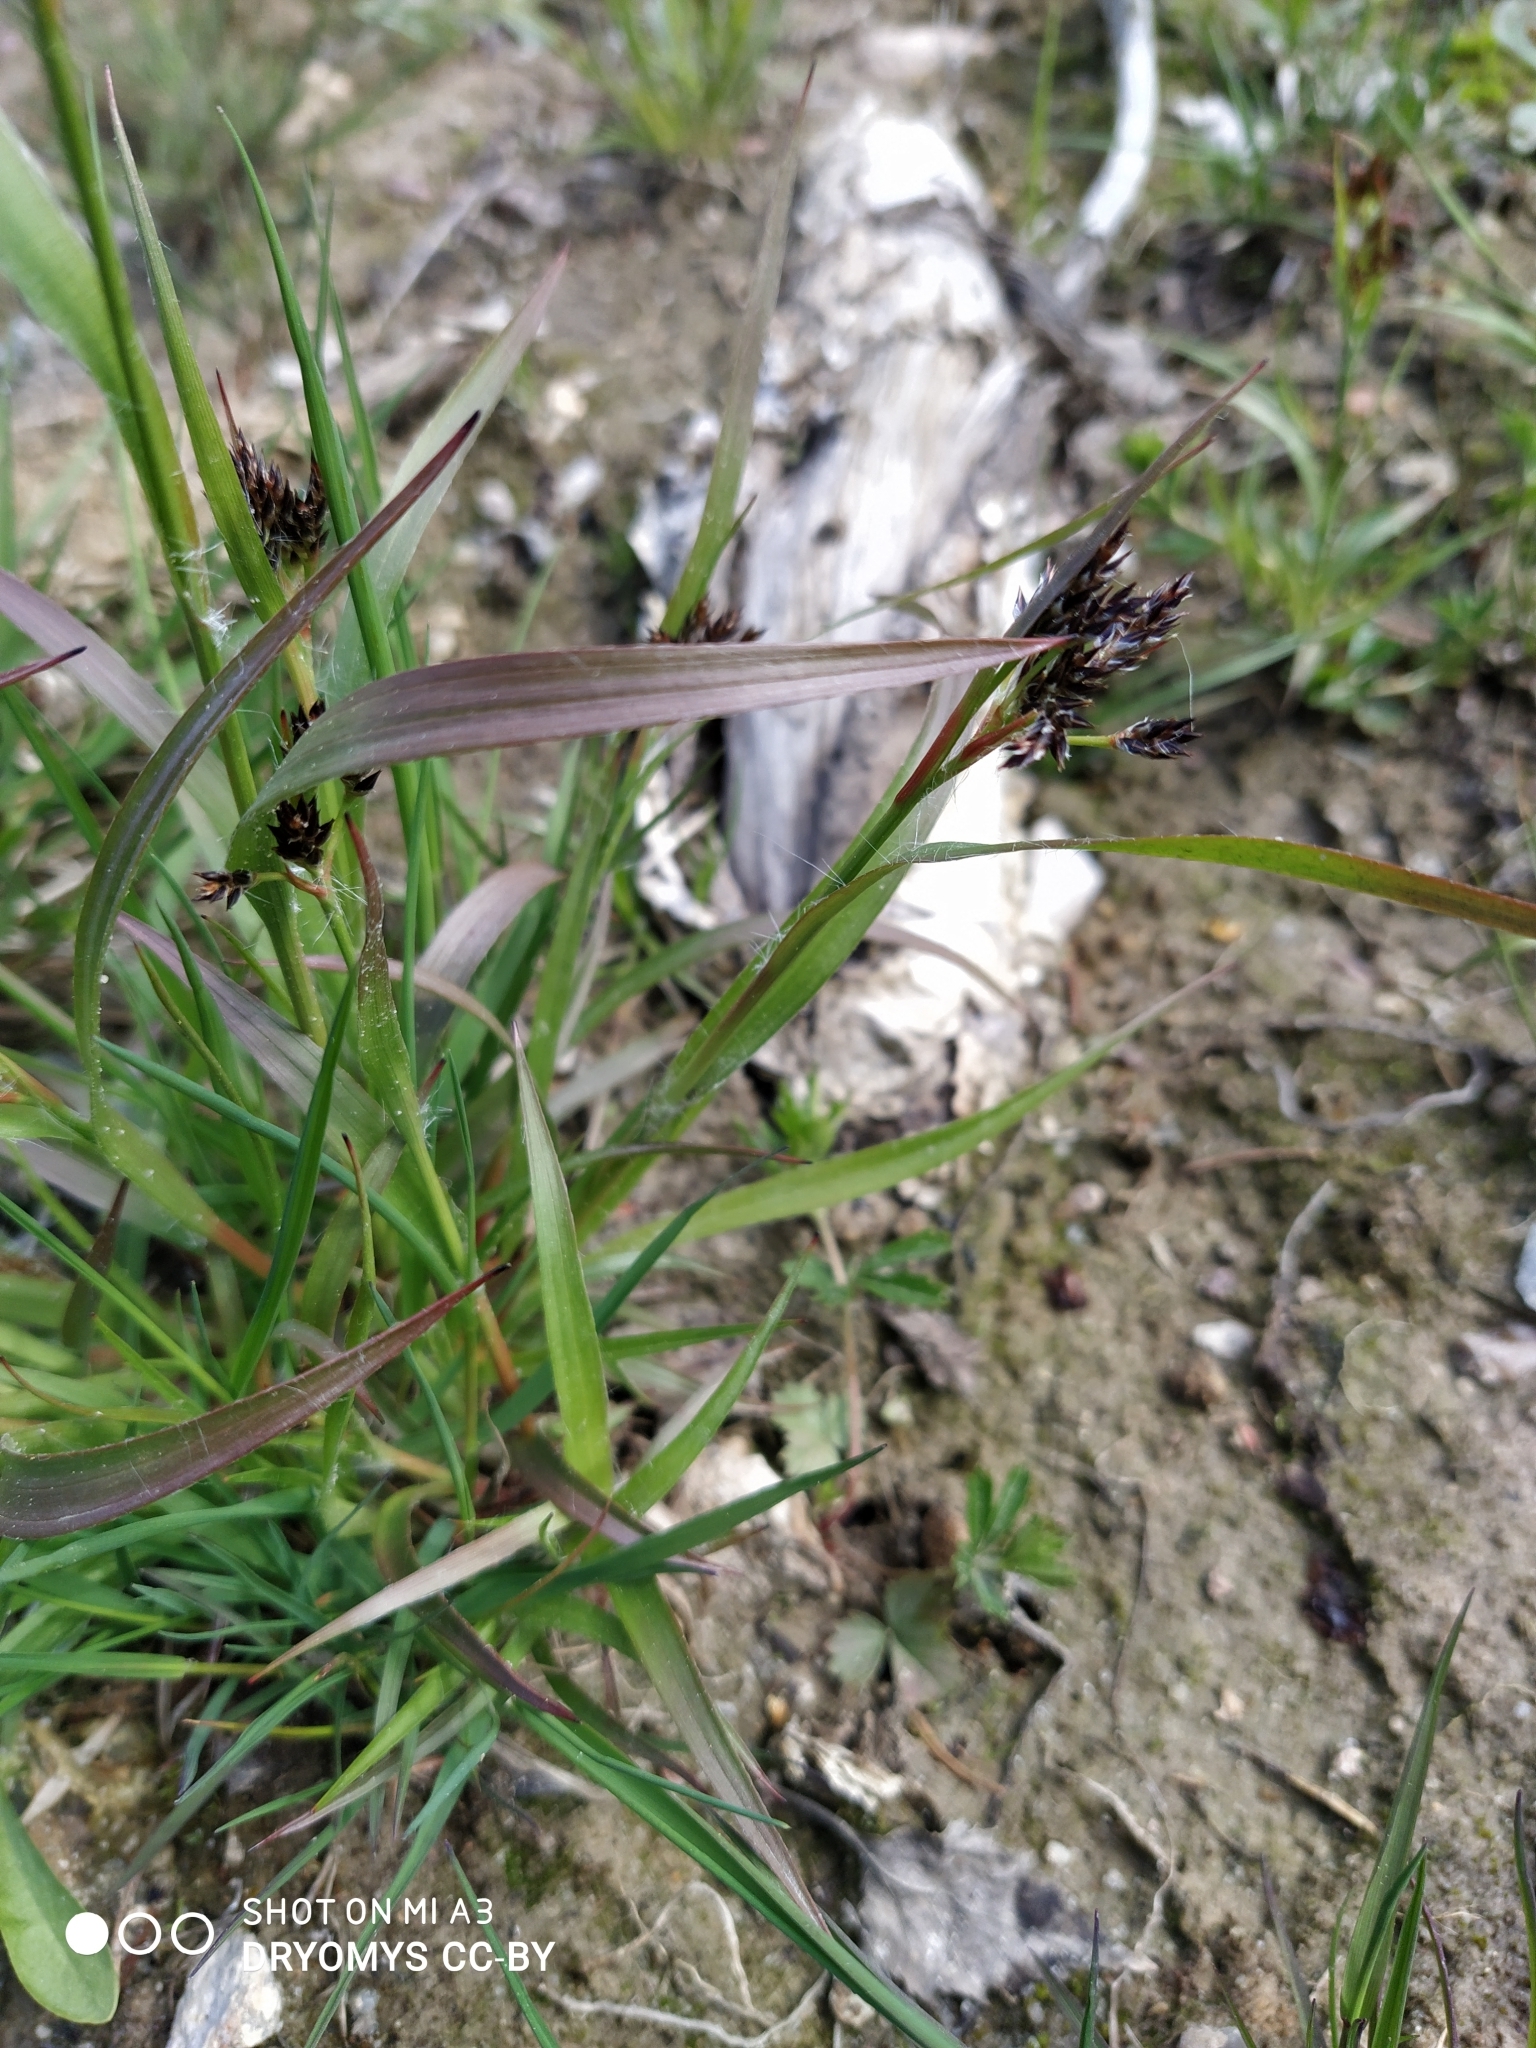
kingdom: Plantae
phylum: Tracheophyta
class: Liliopsida
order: Poales
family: Juncaceae
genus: Luzula
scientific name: Luzula multiflora
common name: Heath wood-rush
